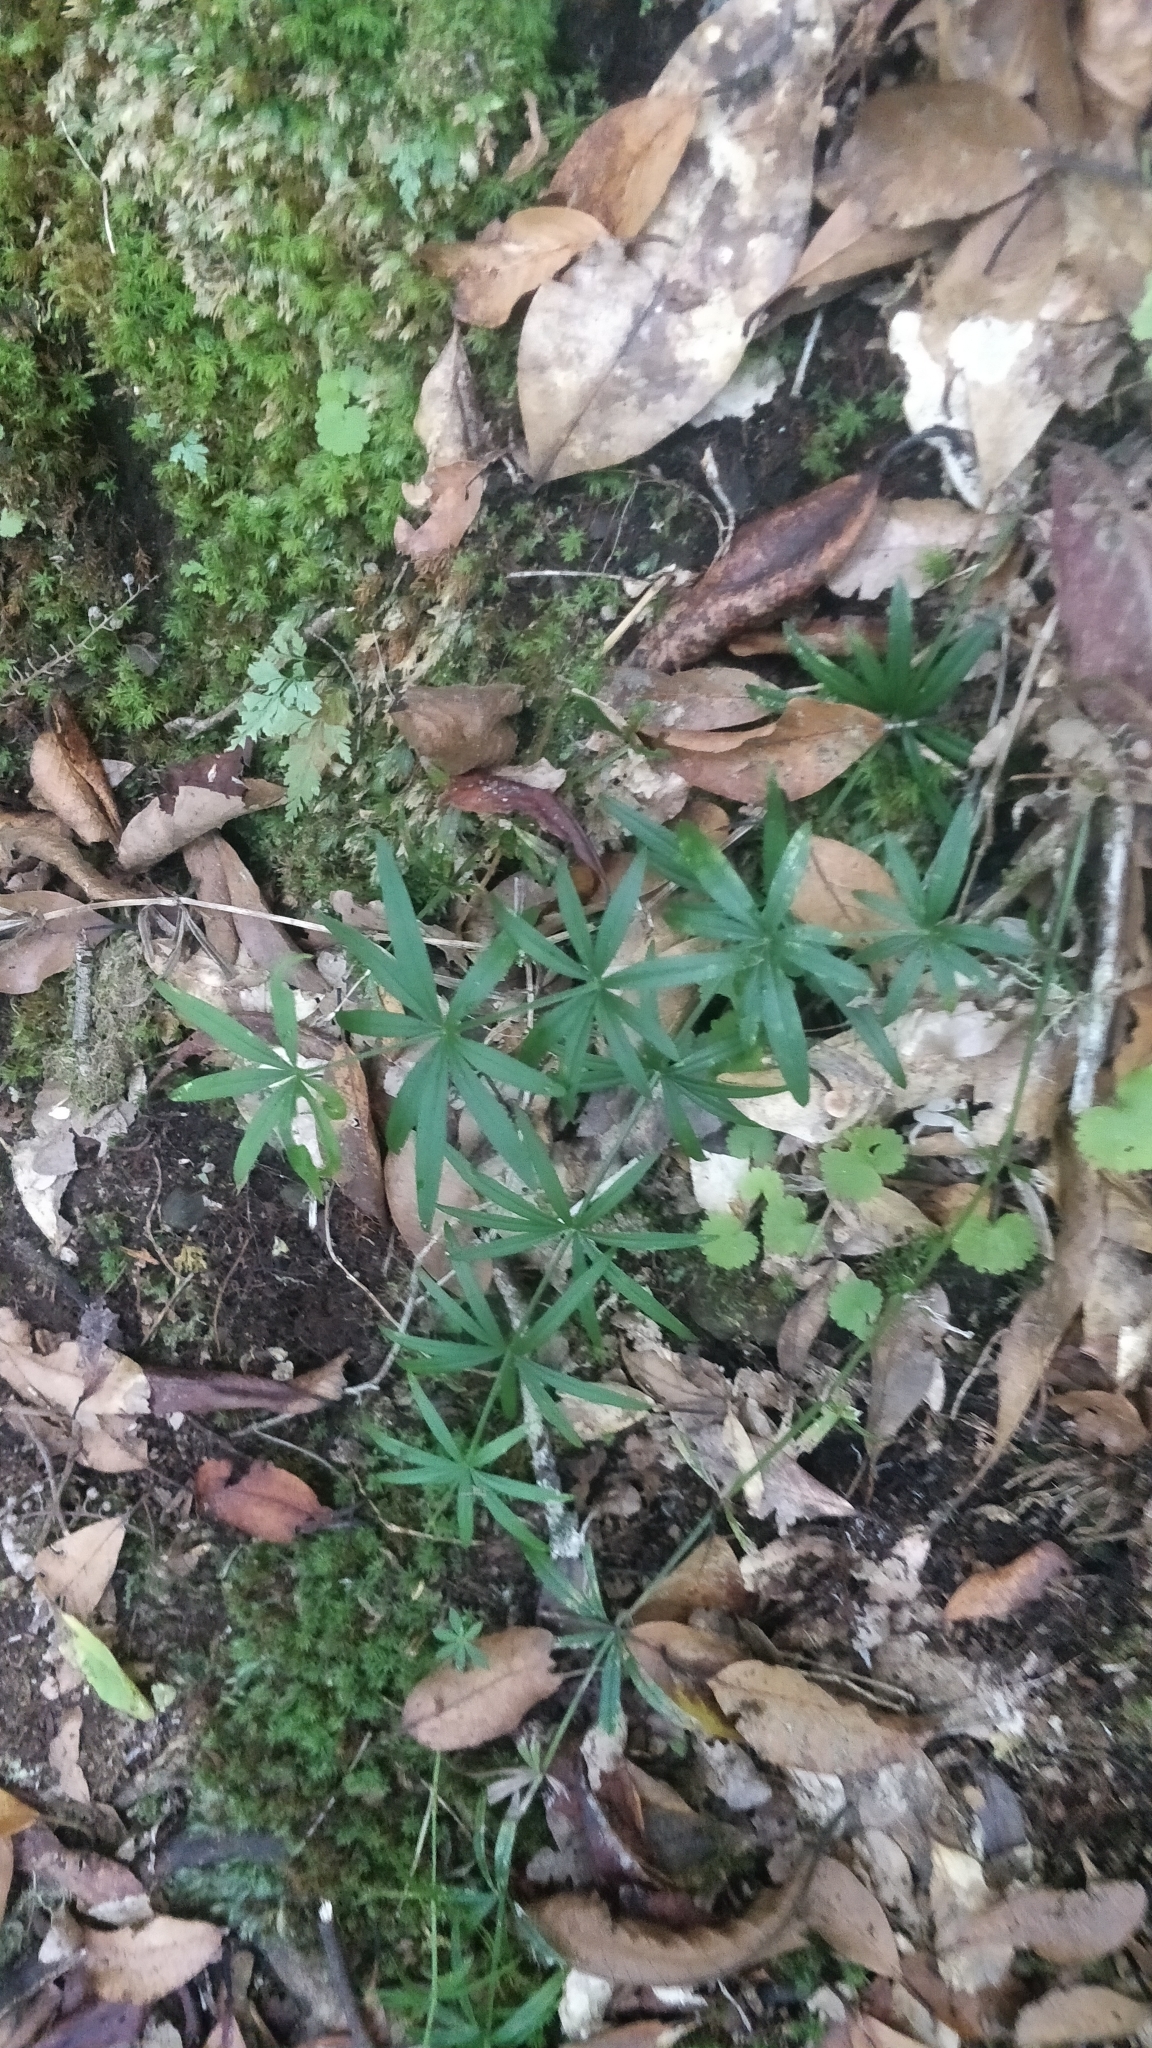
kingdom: Plantae
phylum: Tracheophyta
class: Magnoliopsida
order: Gentianales
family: Rubiaceae
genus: Rubia
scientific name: Rubia occidens
